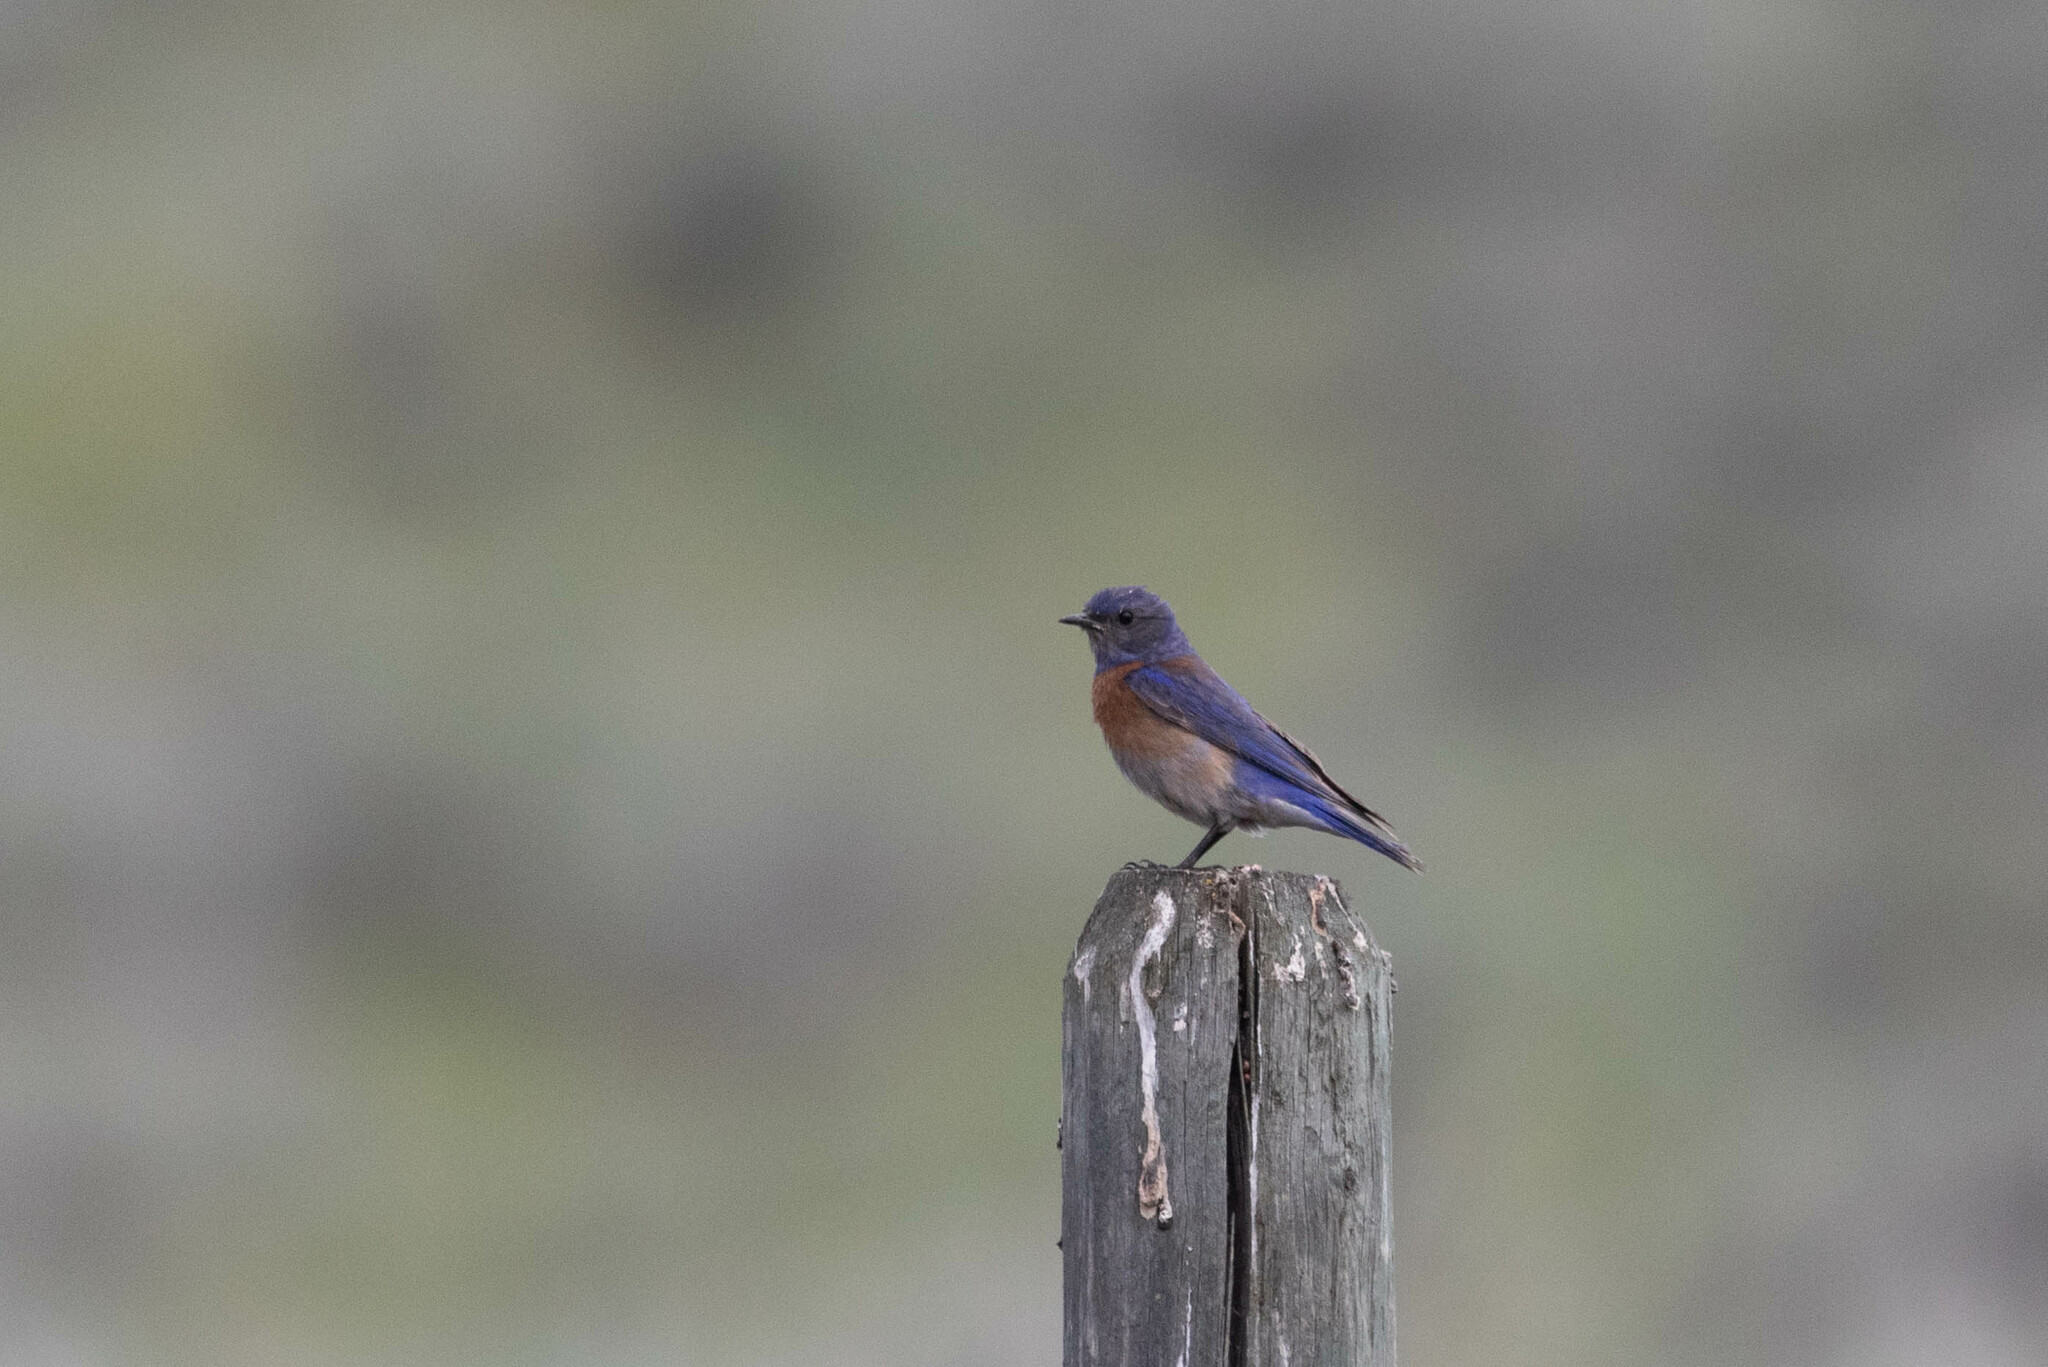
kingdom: Animalia
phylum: Chordata
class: Aves
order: Passeriformes
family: Turdidae
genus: Sialia
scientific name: Sialia mexicana
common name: Western bluebird
